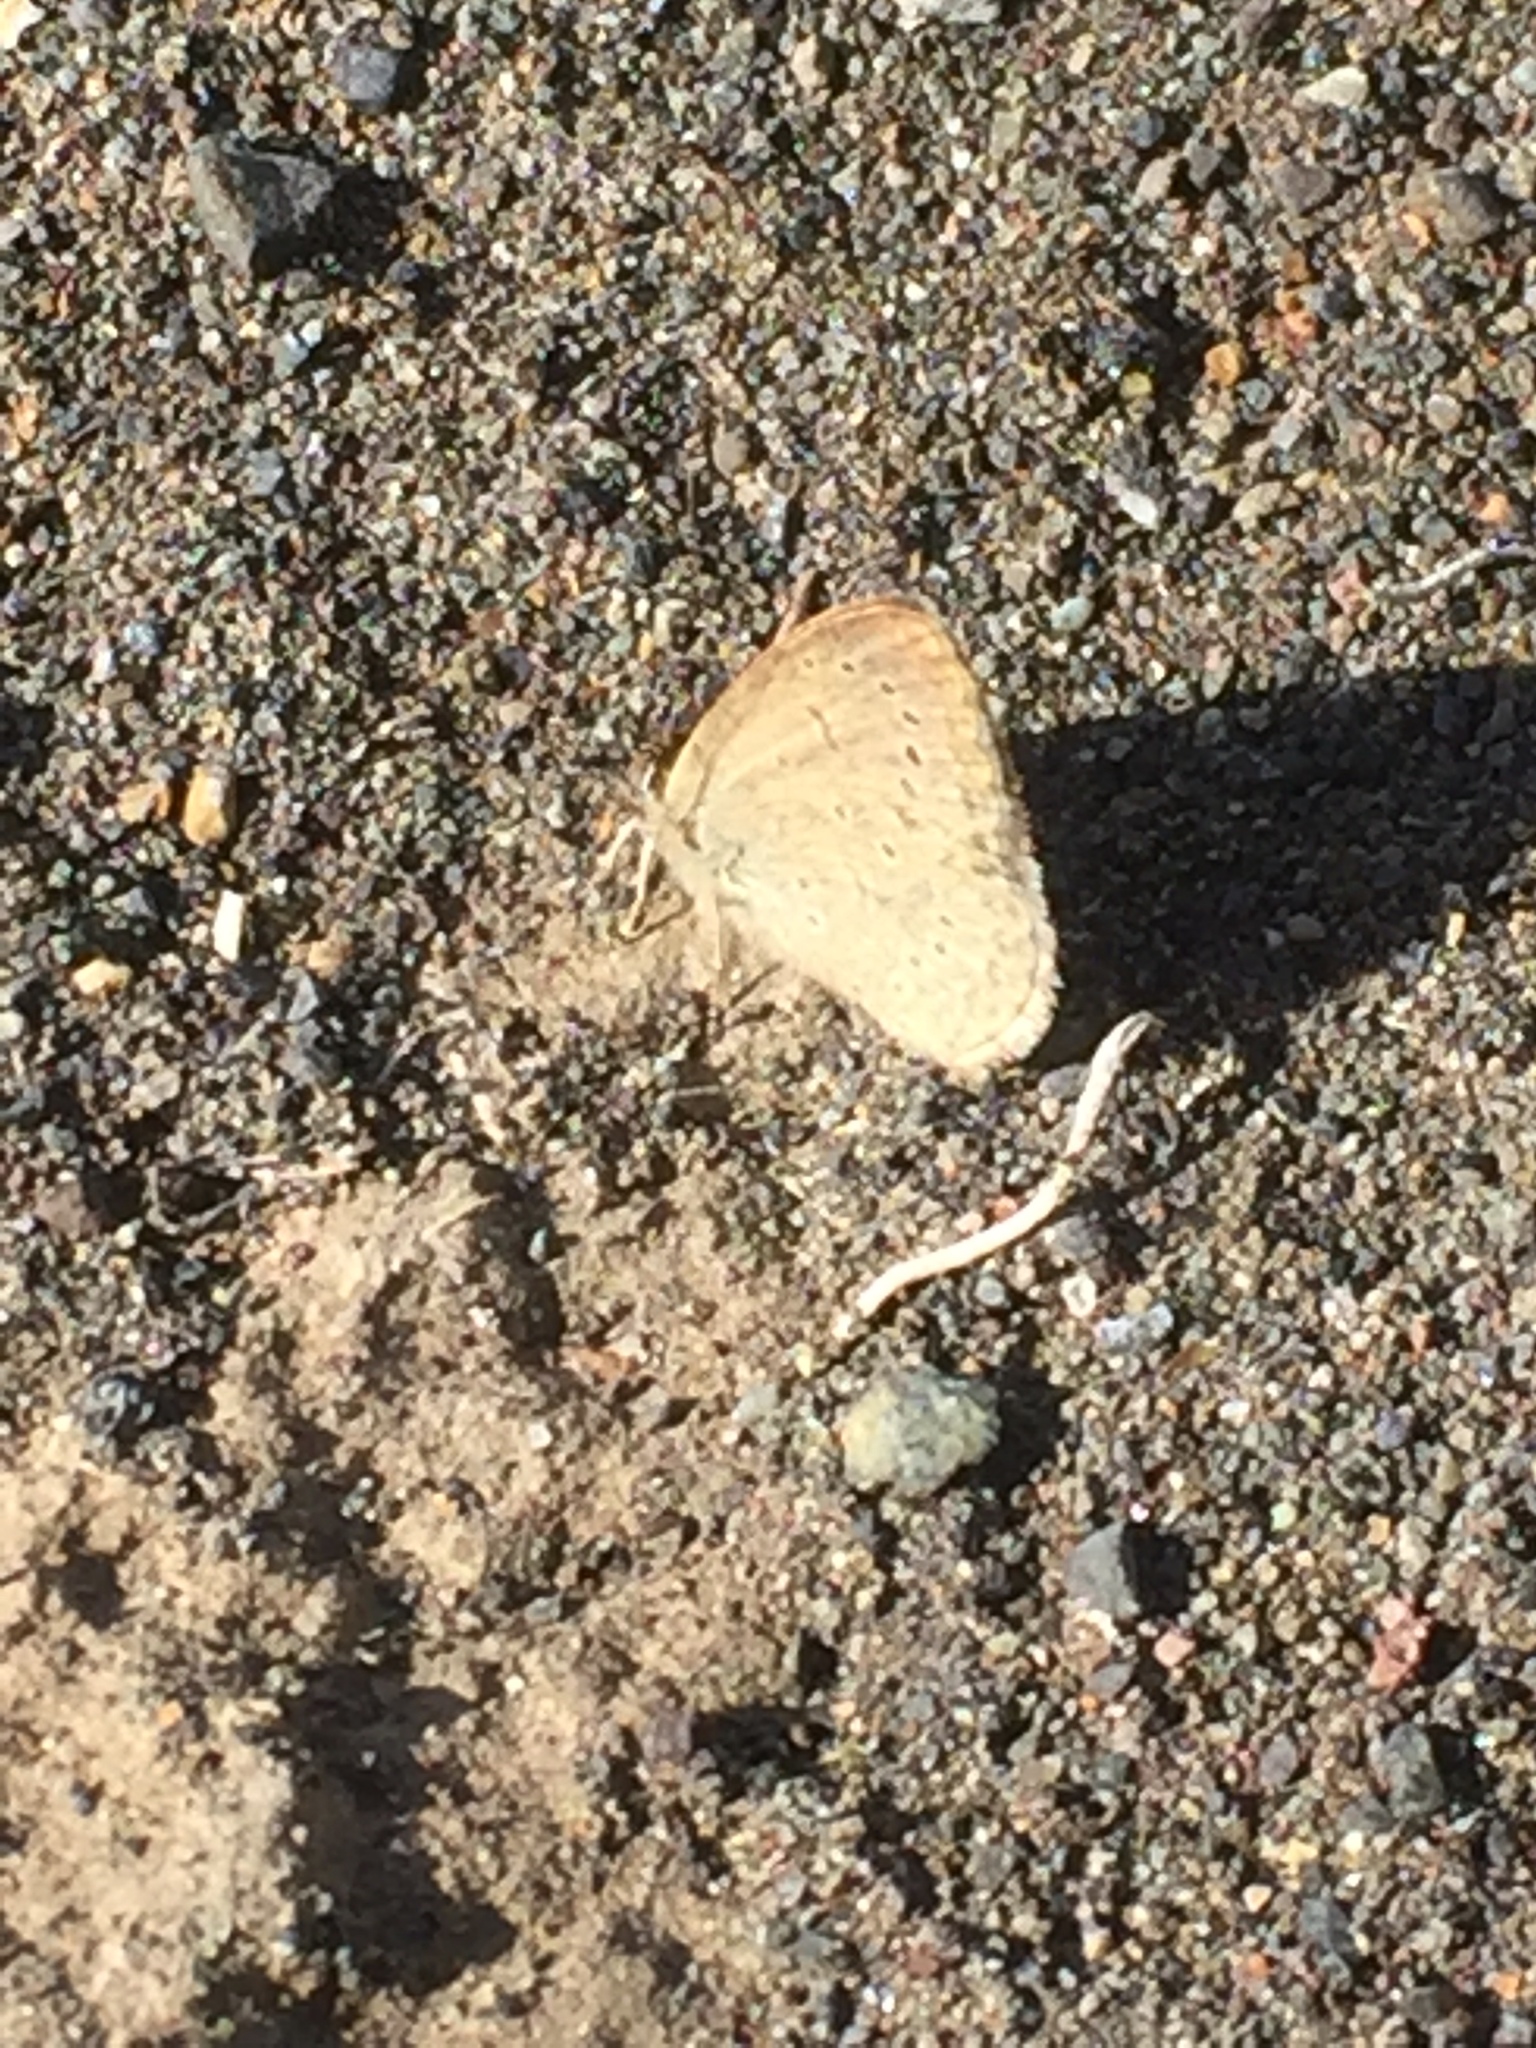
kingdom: Animalia
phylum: Arthropoda
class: Insecta
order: Lepidoptera
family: Lycaenidae
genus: Zizeeria
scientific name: Zizeeria knysna
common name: African grass blue
